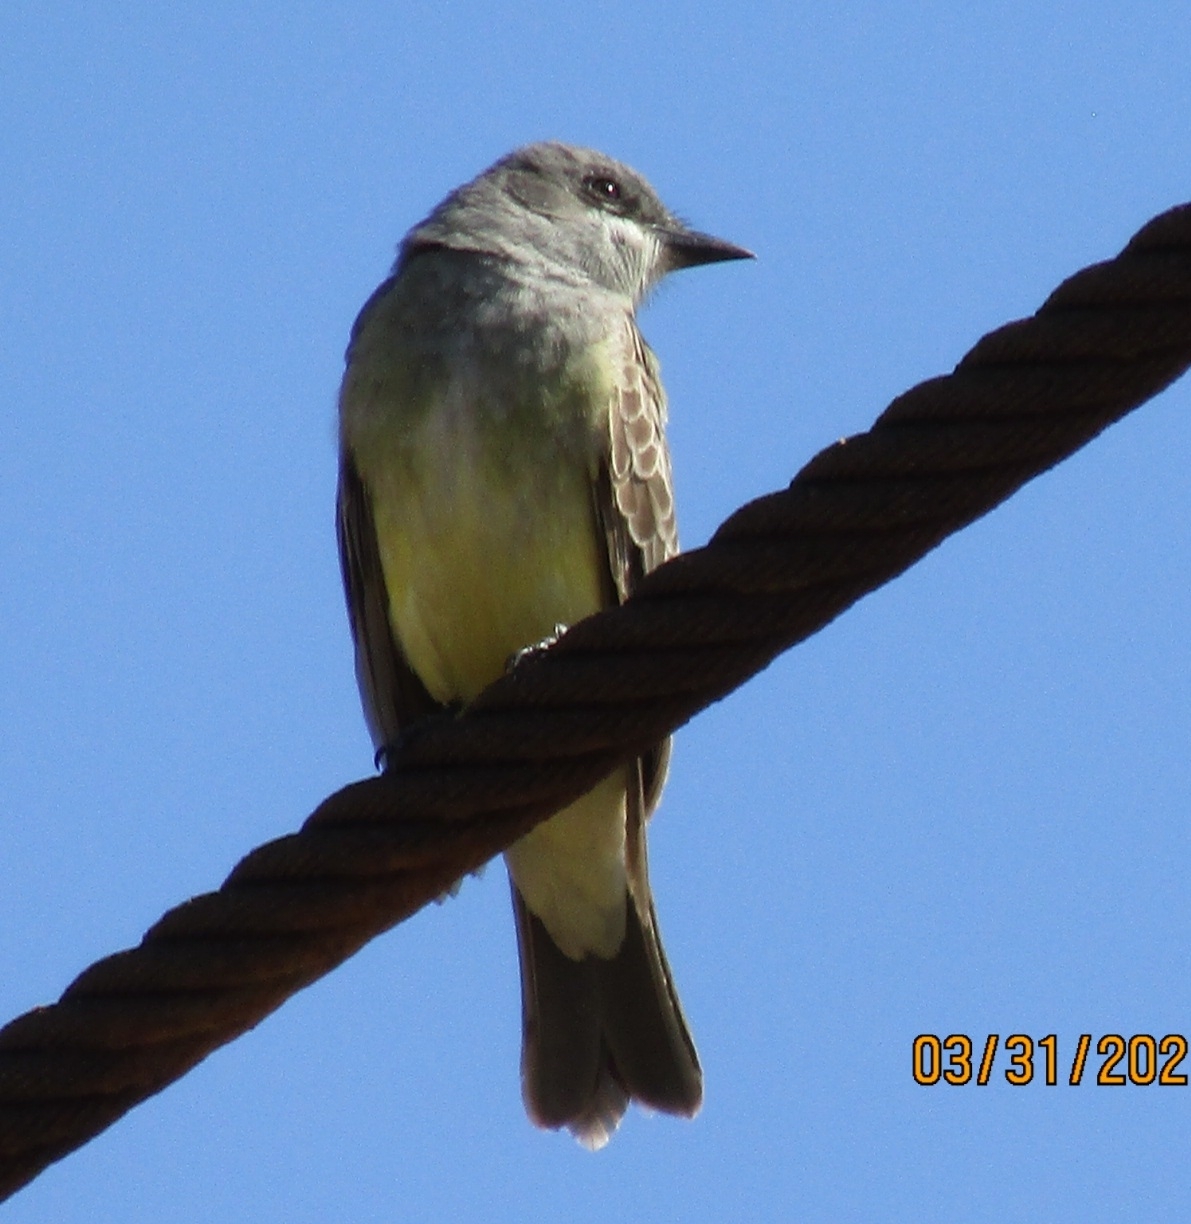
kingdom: Animalia
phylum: Chordata
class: Aves
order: Passeriformes
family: Tyrannidae
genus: Tyrannus
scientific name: Tyrannus vociferans
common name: Cassin's kingbird
